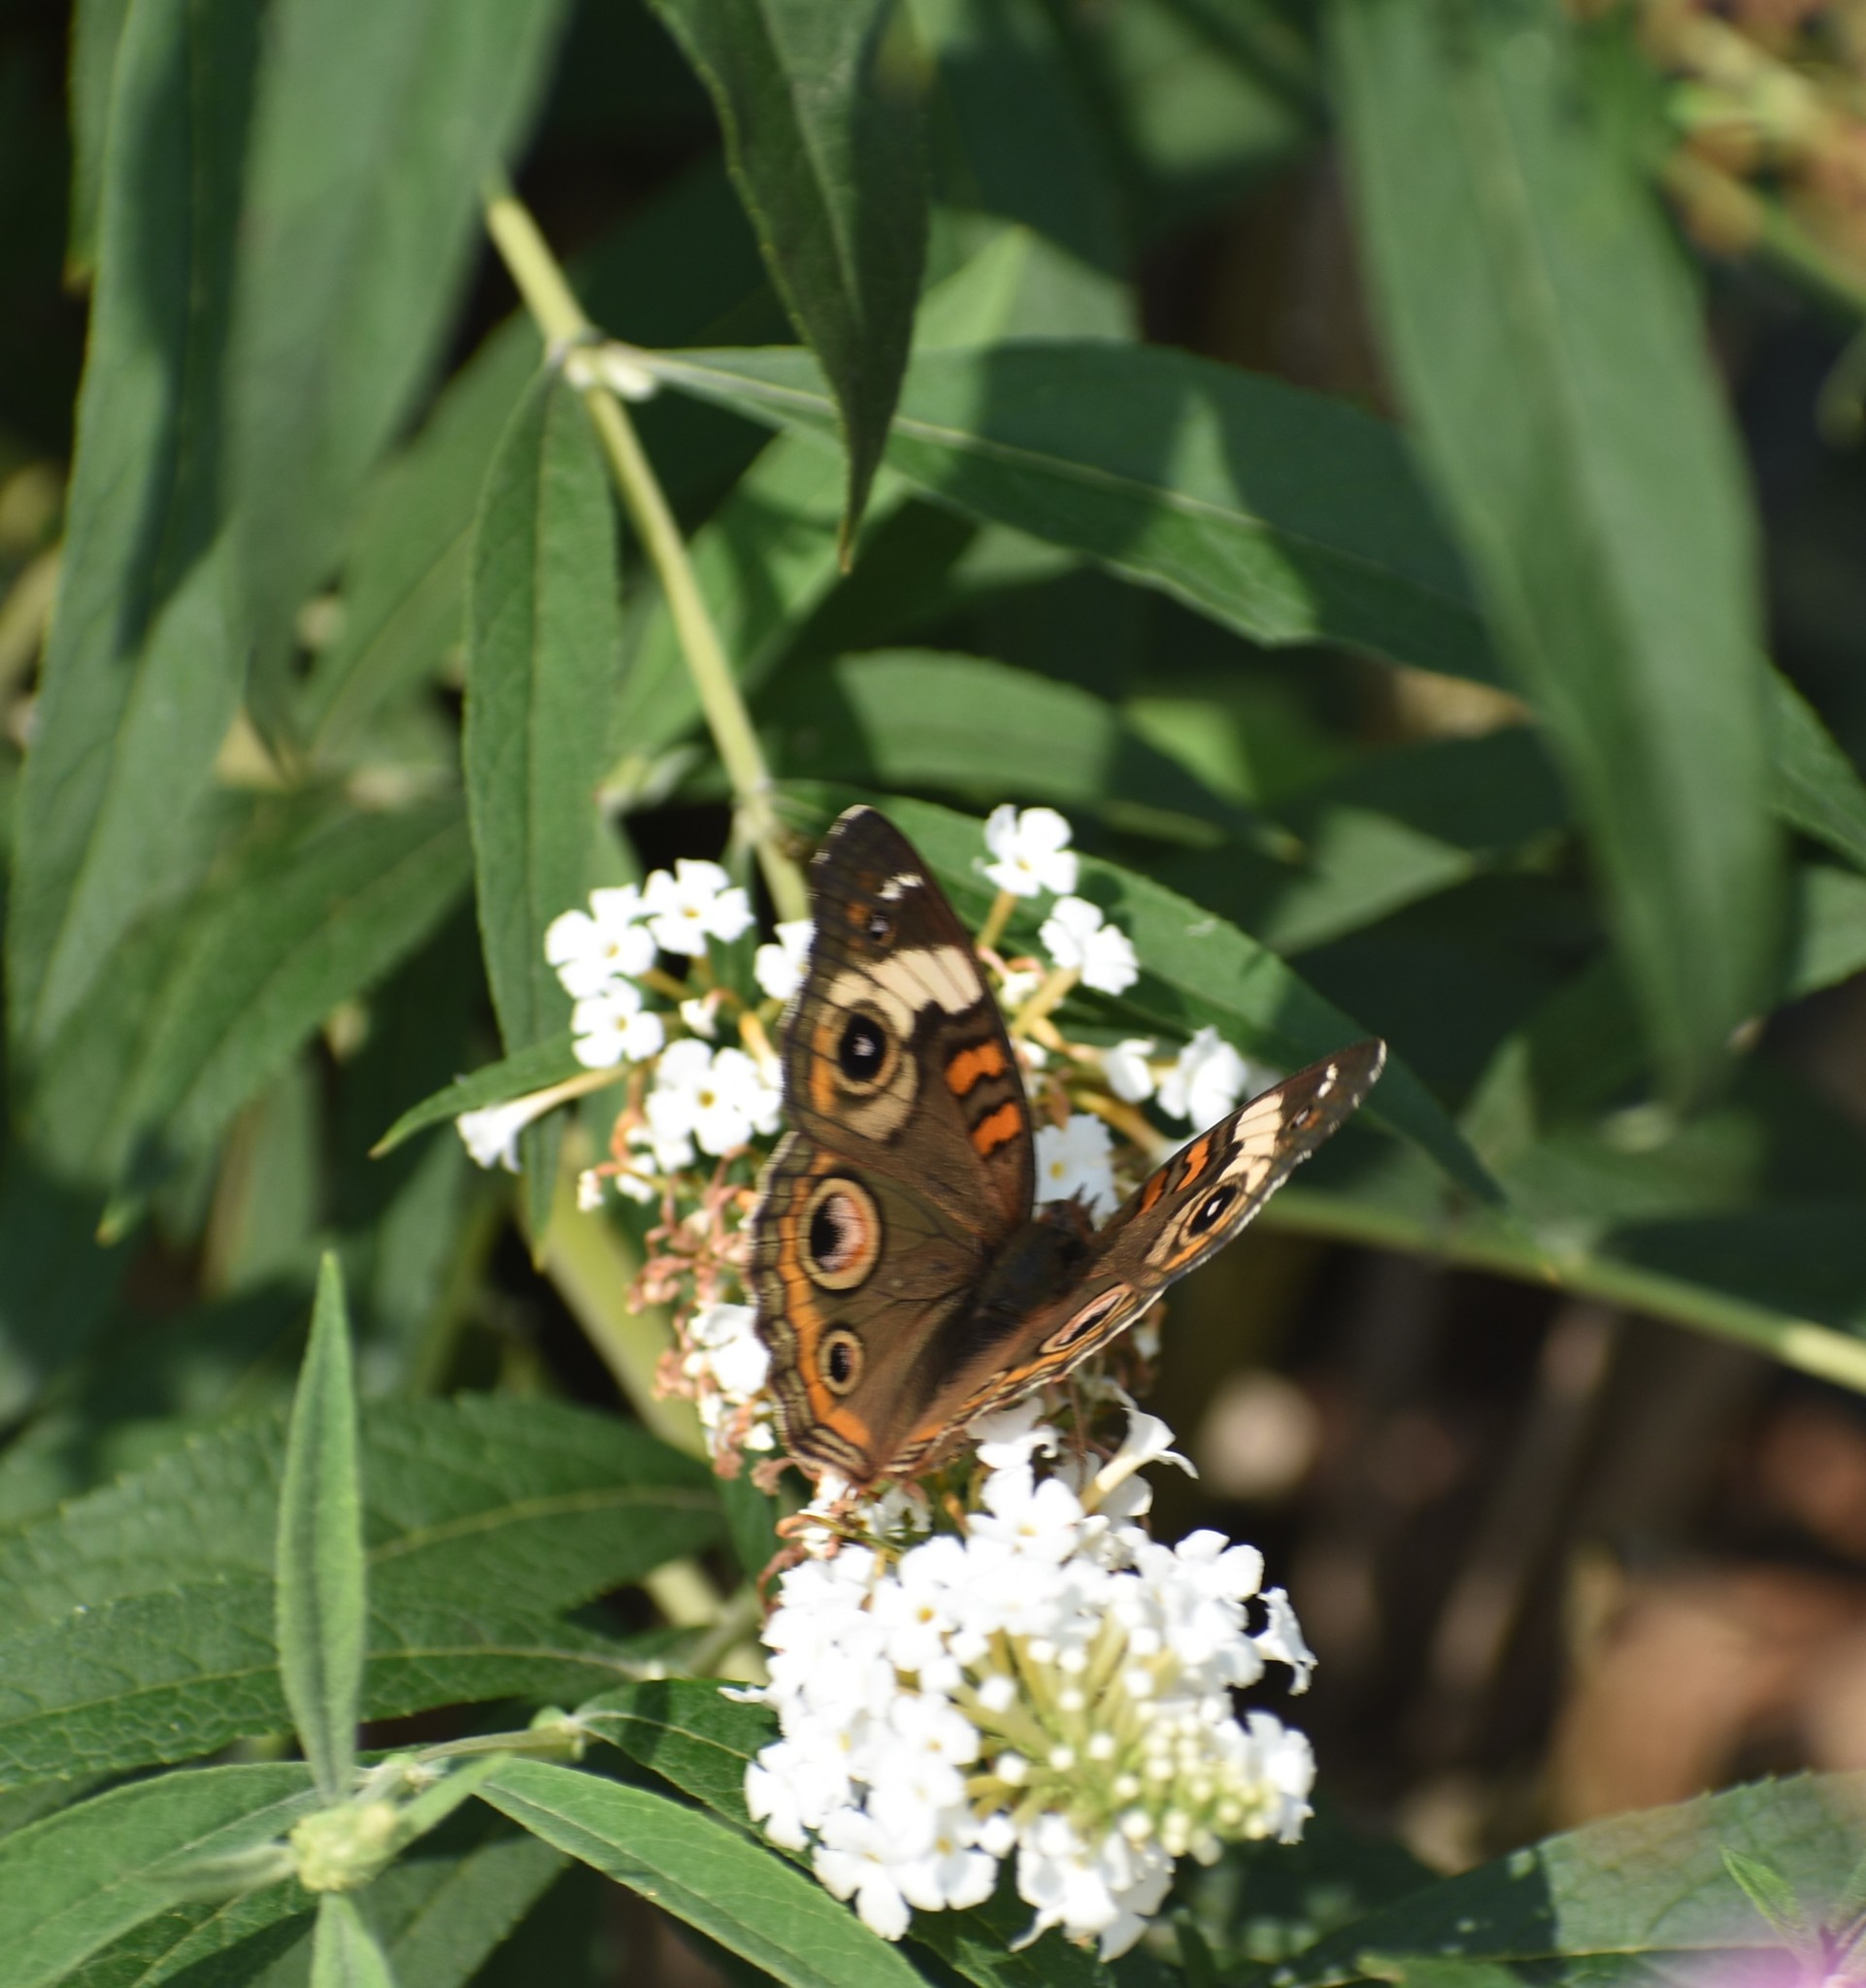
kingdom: Animalia
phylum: Arthropoda
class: Insecta
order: Lepidoptera
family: Nymphalidae
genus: Junonia
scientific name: Junonia coenia
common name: Common buckeye
